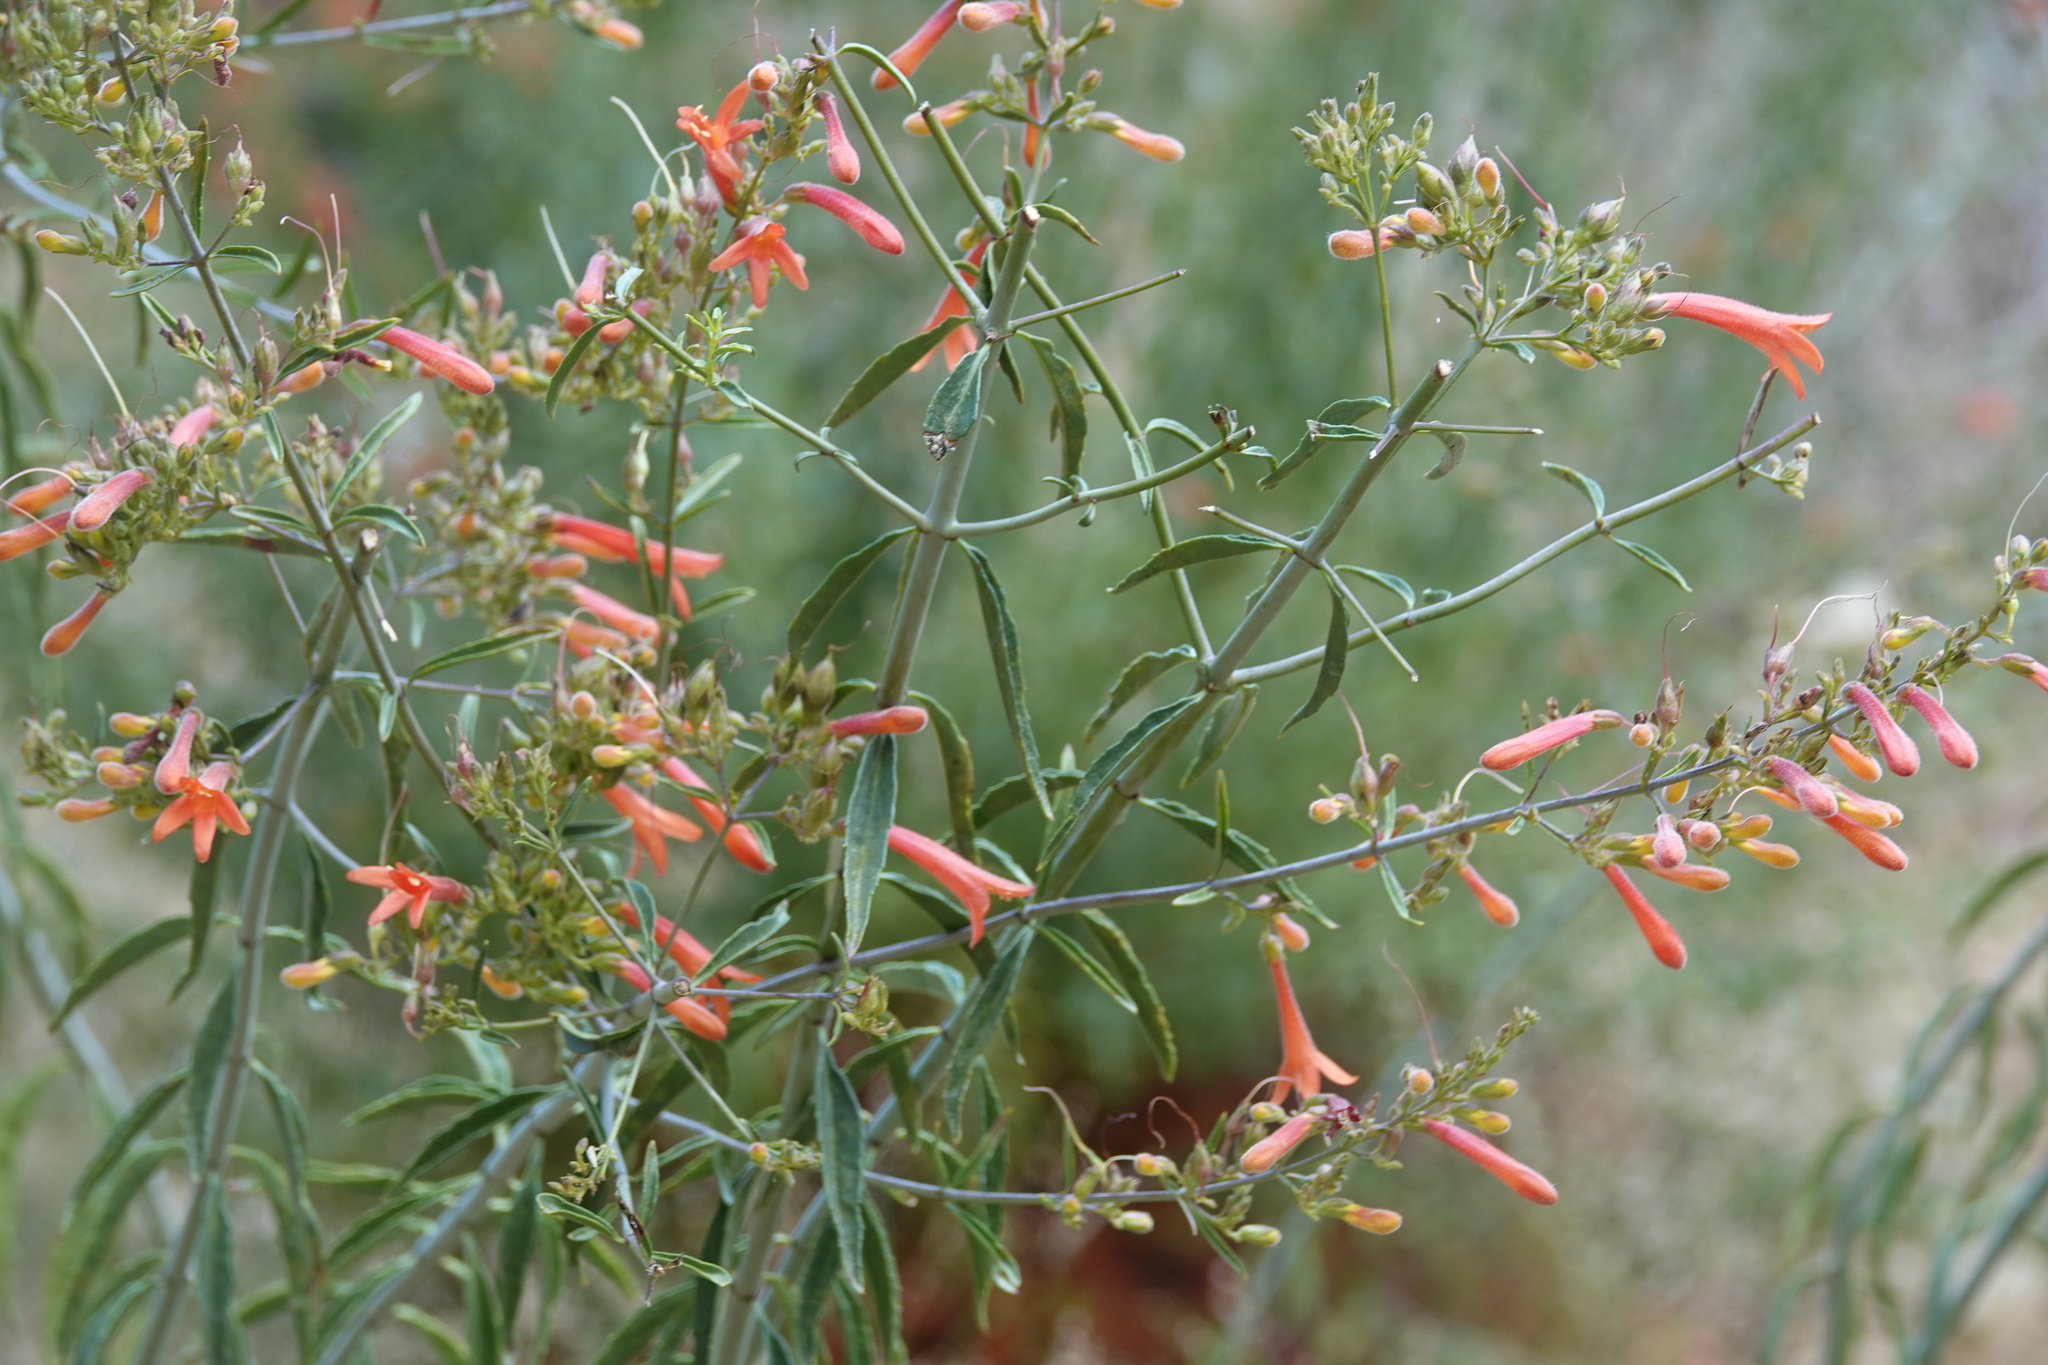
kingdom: Plantae
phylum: Tracheophyta
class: Magnoliopsida
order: Lamiales
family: Plantaginaceae
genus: Keckiella
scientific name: Keckiella ternata
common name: Scarlet keckiella
